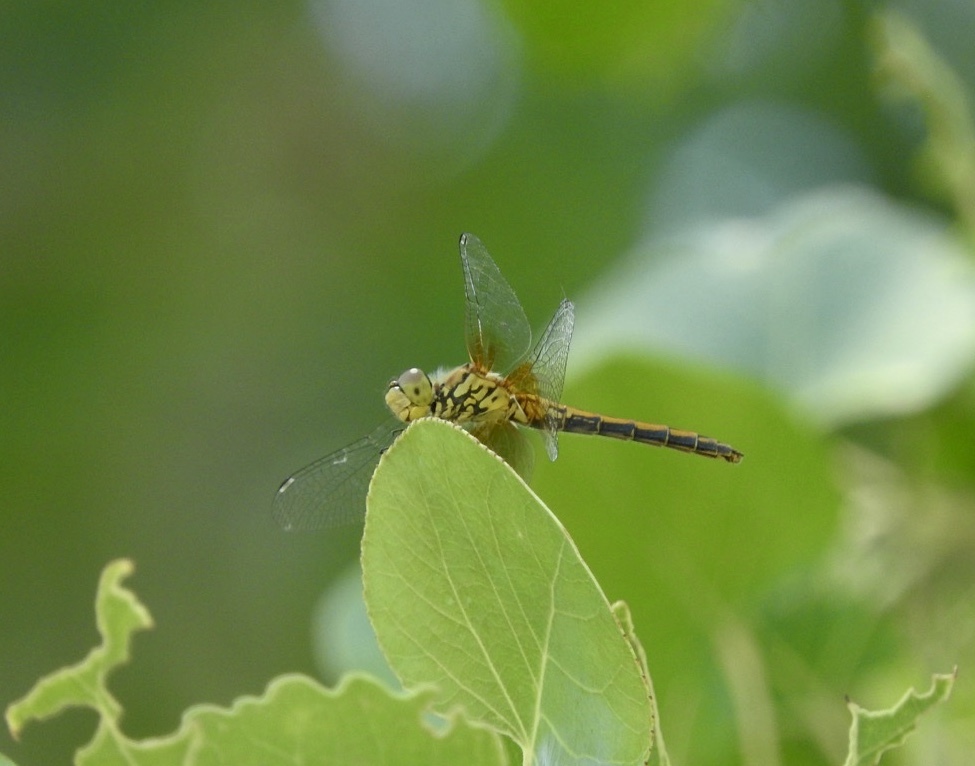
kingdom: Animalia
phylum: Arthropoda
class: Insecta
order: Odonata
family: Libellulidae
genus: Sympetrum
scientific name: Sympetrum semicinctum
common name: Band-winged meadowhawk
